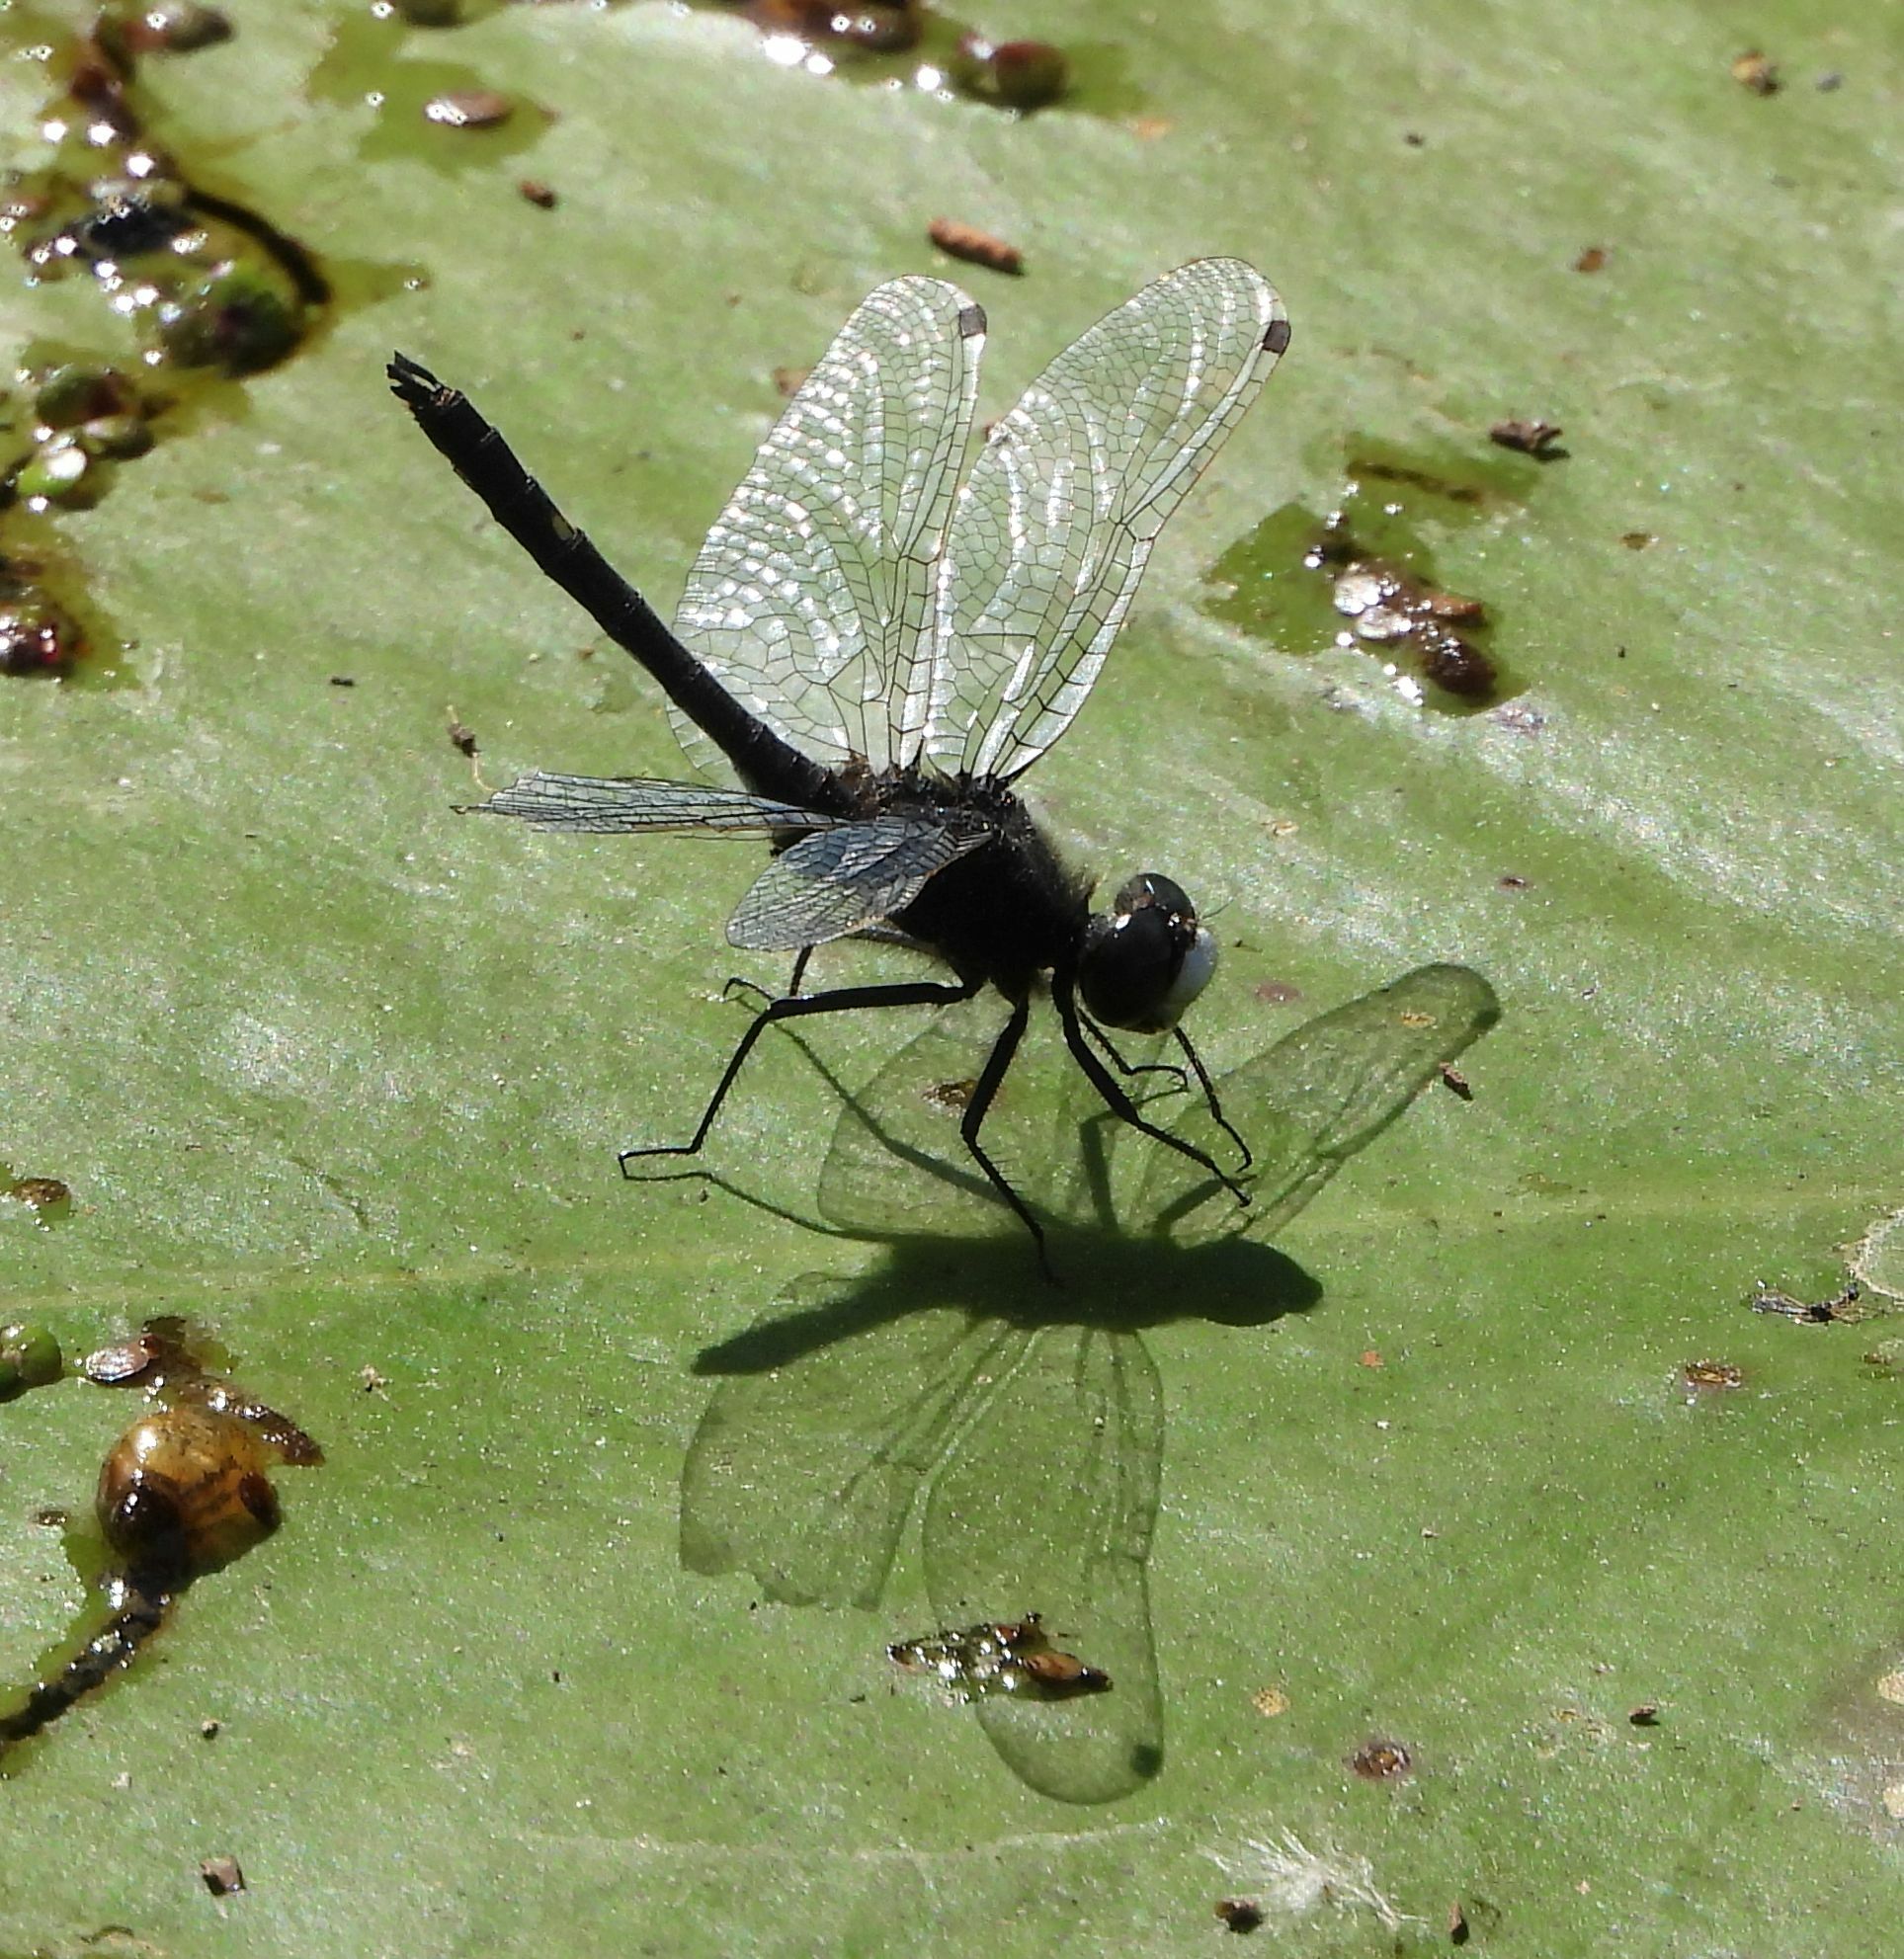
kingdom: Animalia
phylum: Arthropoda
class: Insecta
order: Odonata
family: Libellulidae
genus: Leucorrhinia
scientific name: Leucorrhinia intacta
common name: Dot-tailed whiteface
